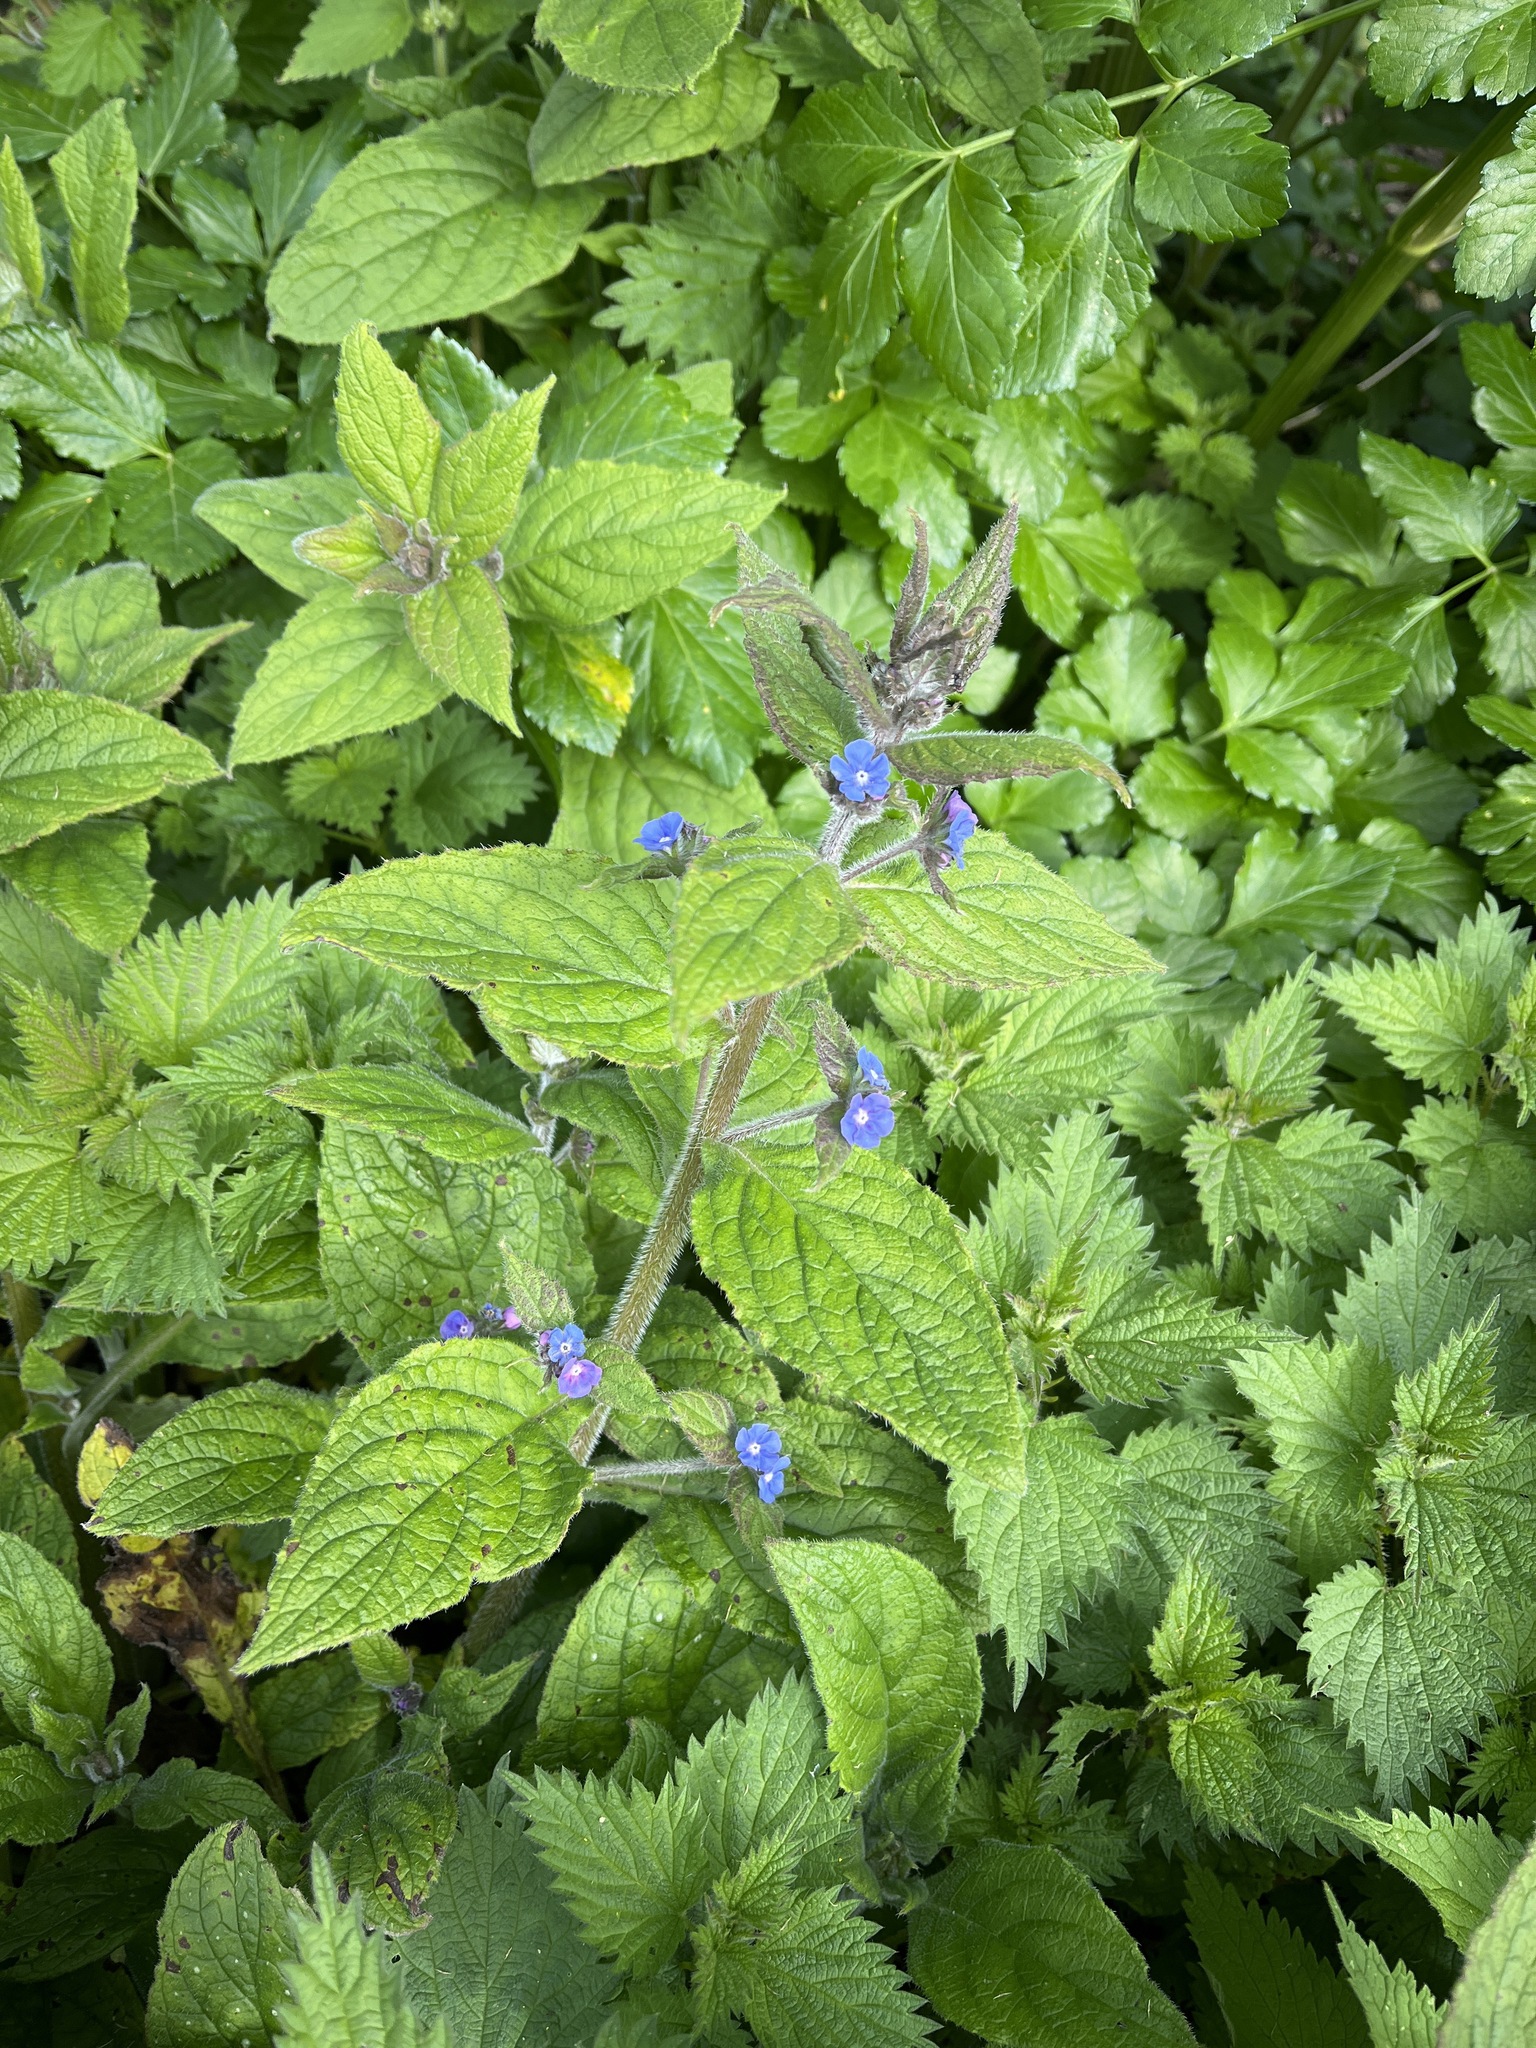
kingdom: Plantae
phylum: Tracheophyta
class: Magnoliopsida
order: Boraginales
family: Boraginaceae
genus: Pentaglottis
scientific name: Pentaglottis sempervirens
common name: Green alkanet
